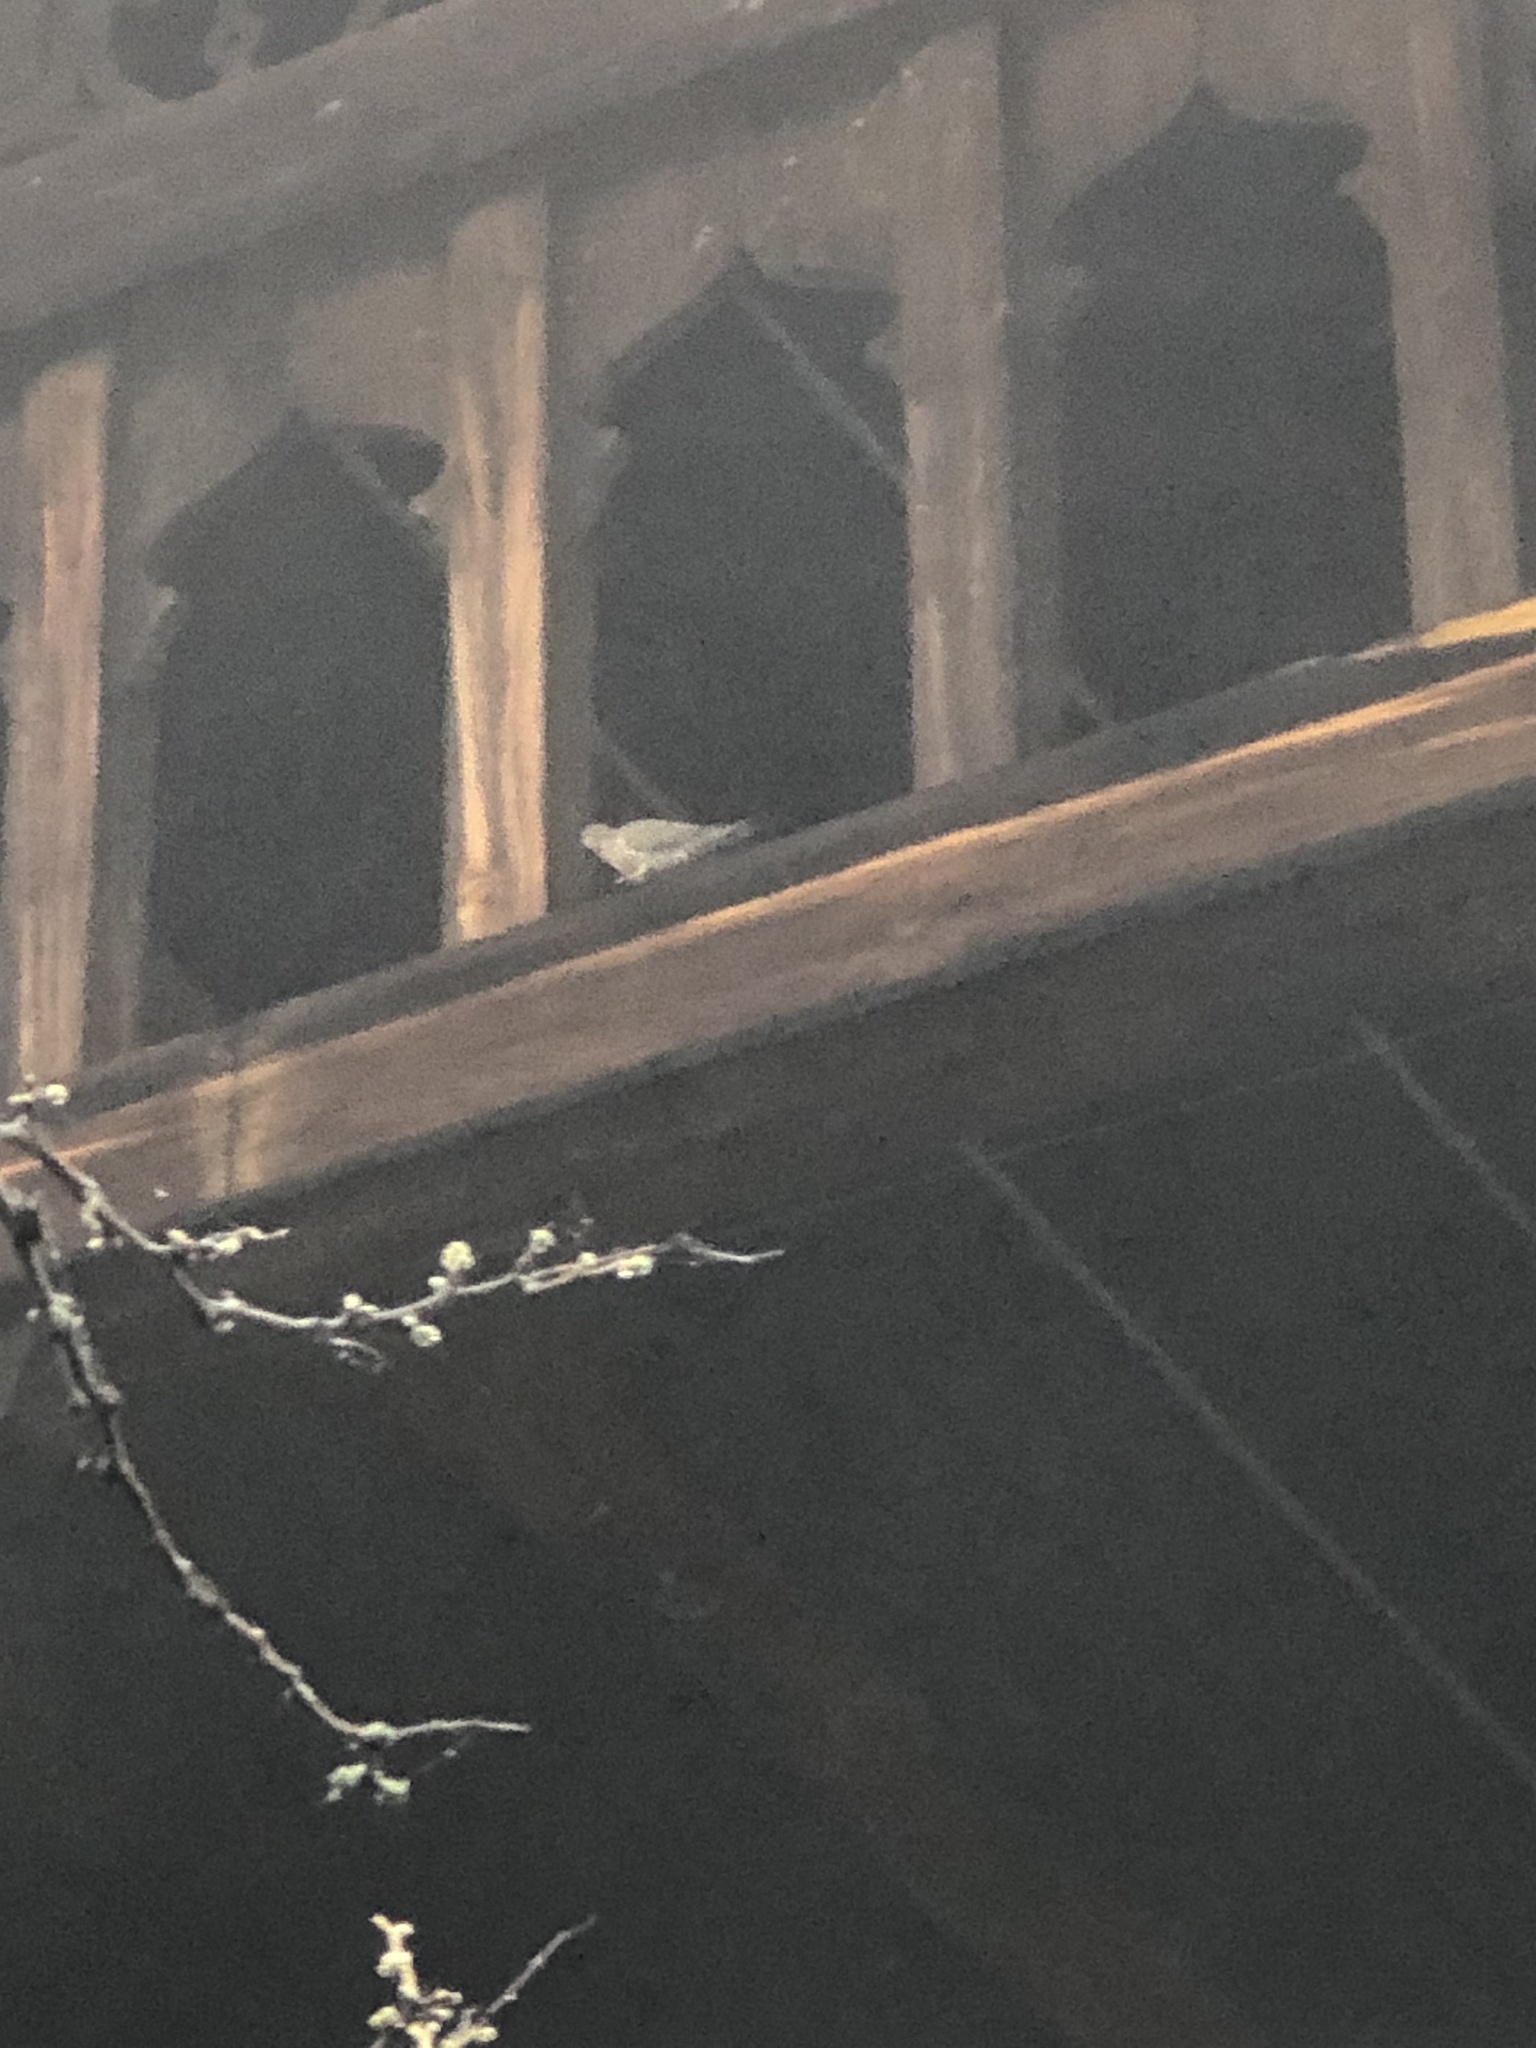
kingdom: Animalia
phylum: Chordata
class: Aves
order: Columbiformes
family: Columbidae
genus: Zenaida
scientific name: Zenaida macroura
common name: Mourning dove
